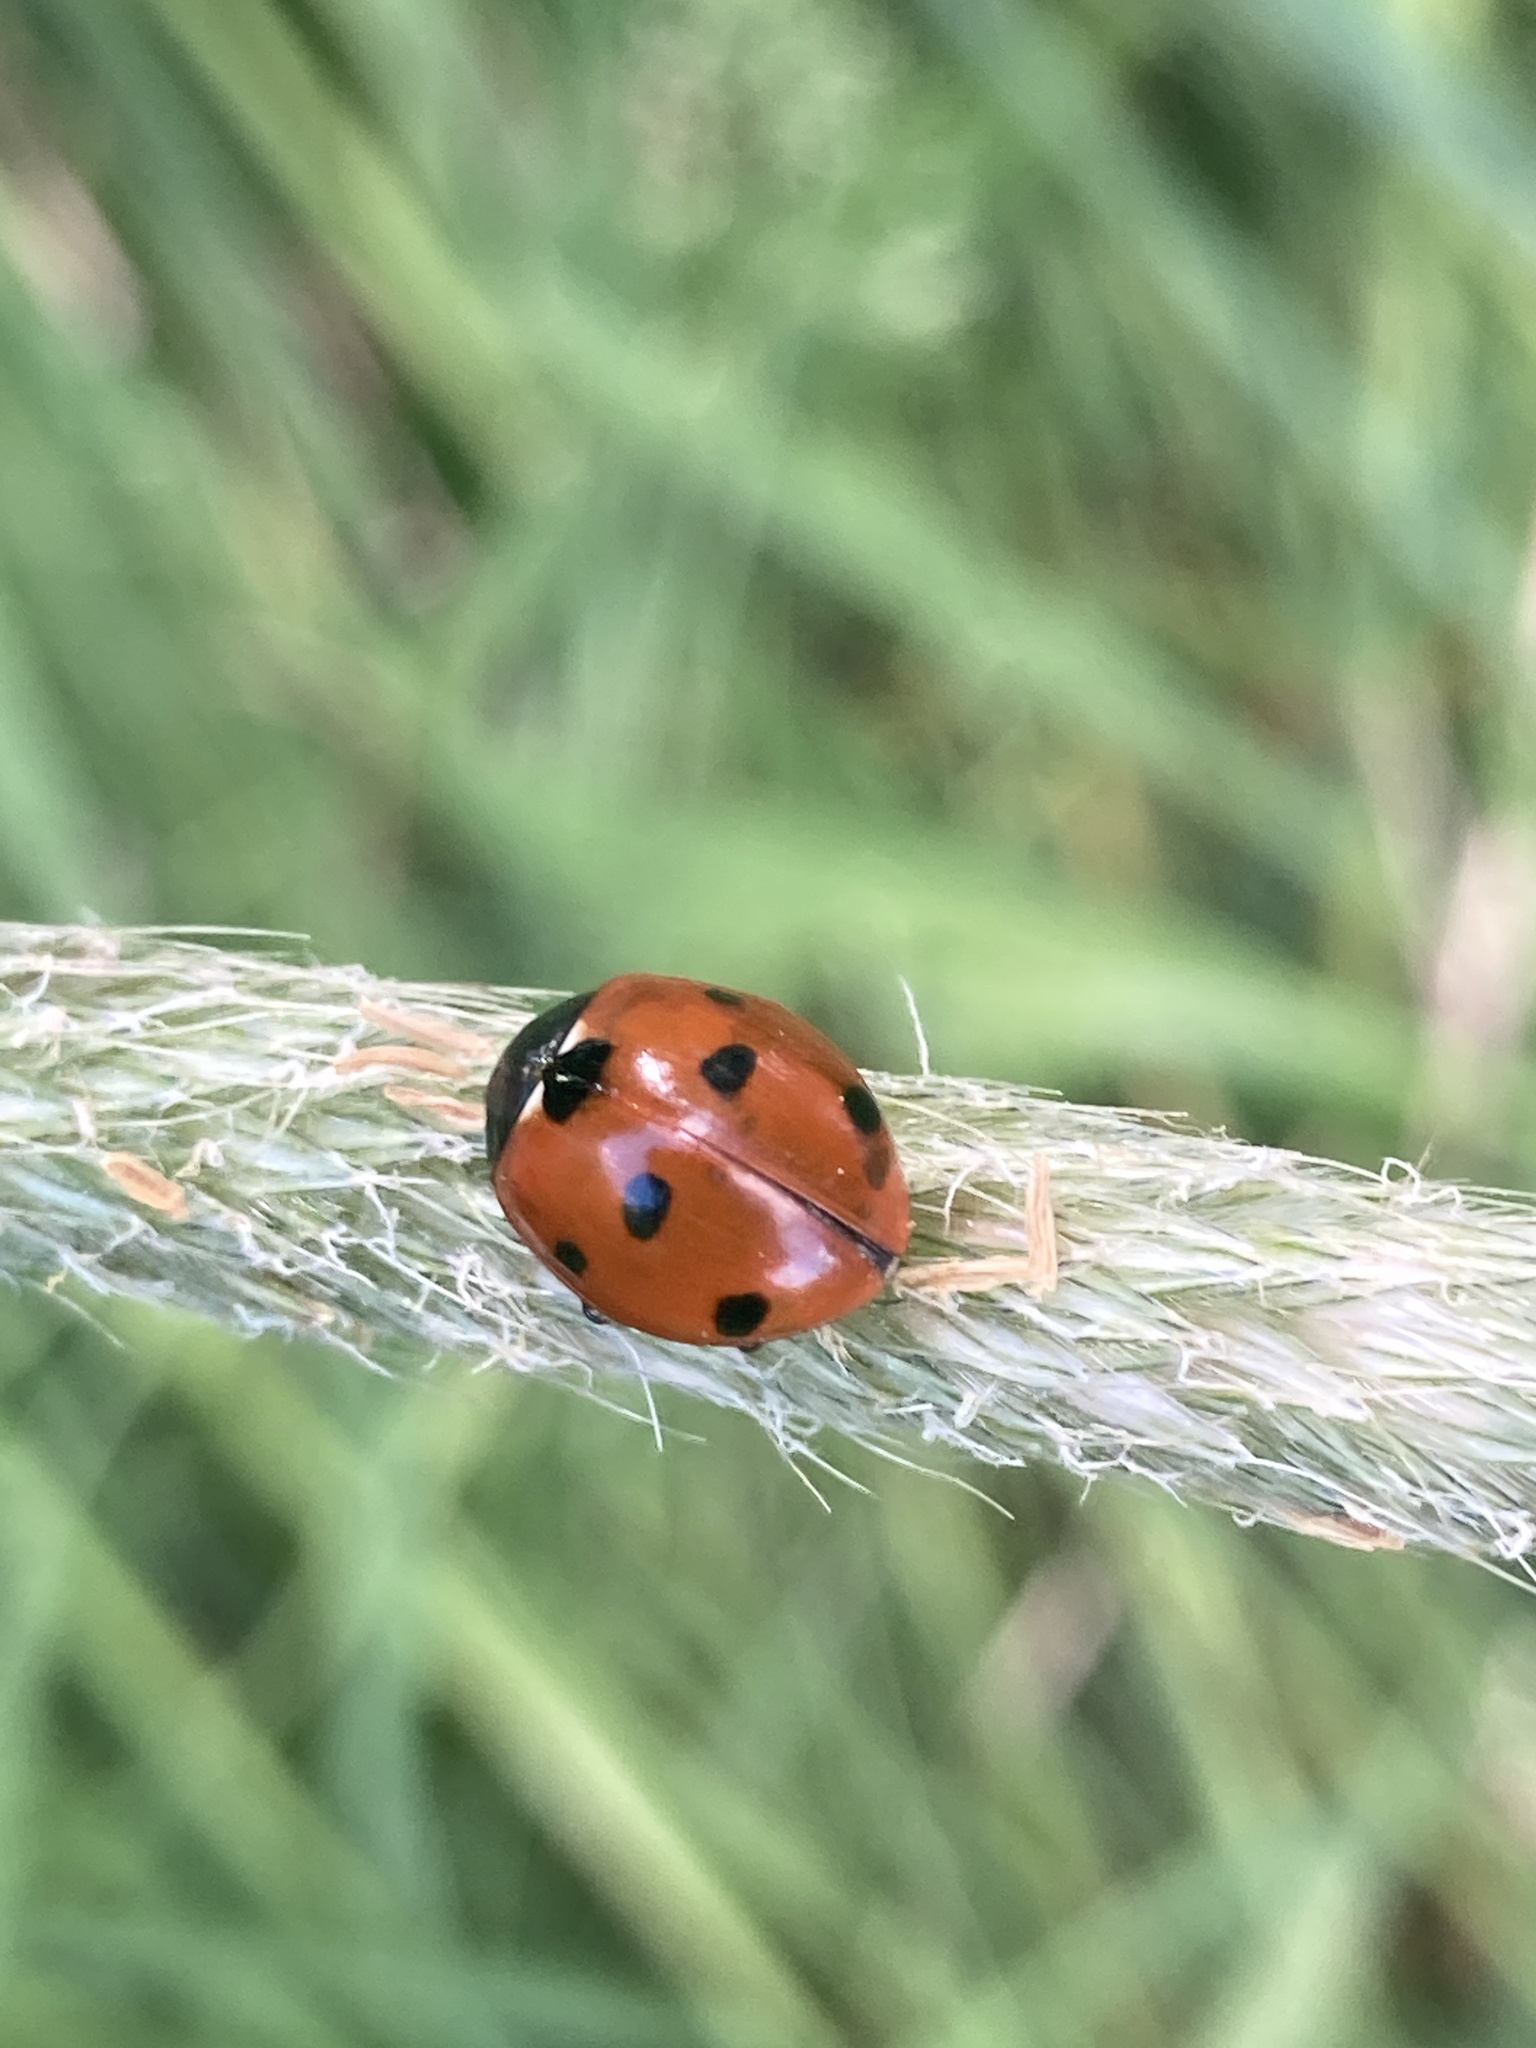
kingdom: Animalia
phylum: Arthropoda
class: Insecta
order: Coleoptera
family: Coccinellidae
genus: Coccinella
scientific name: Coccinella septempunctata
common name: Sevenspotted lady beetle
